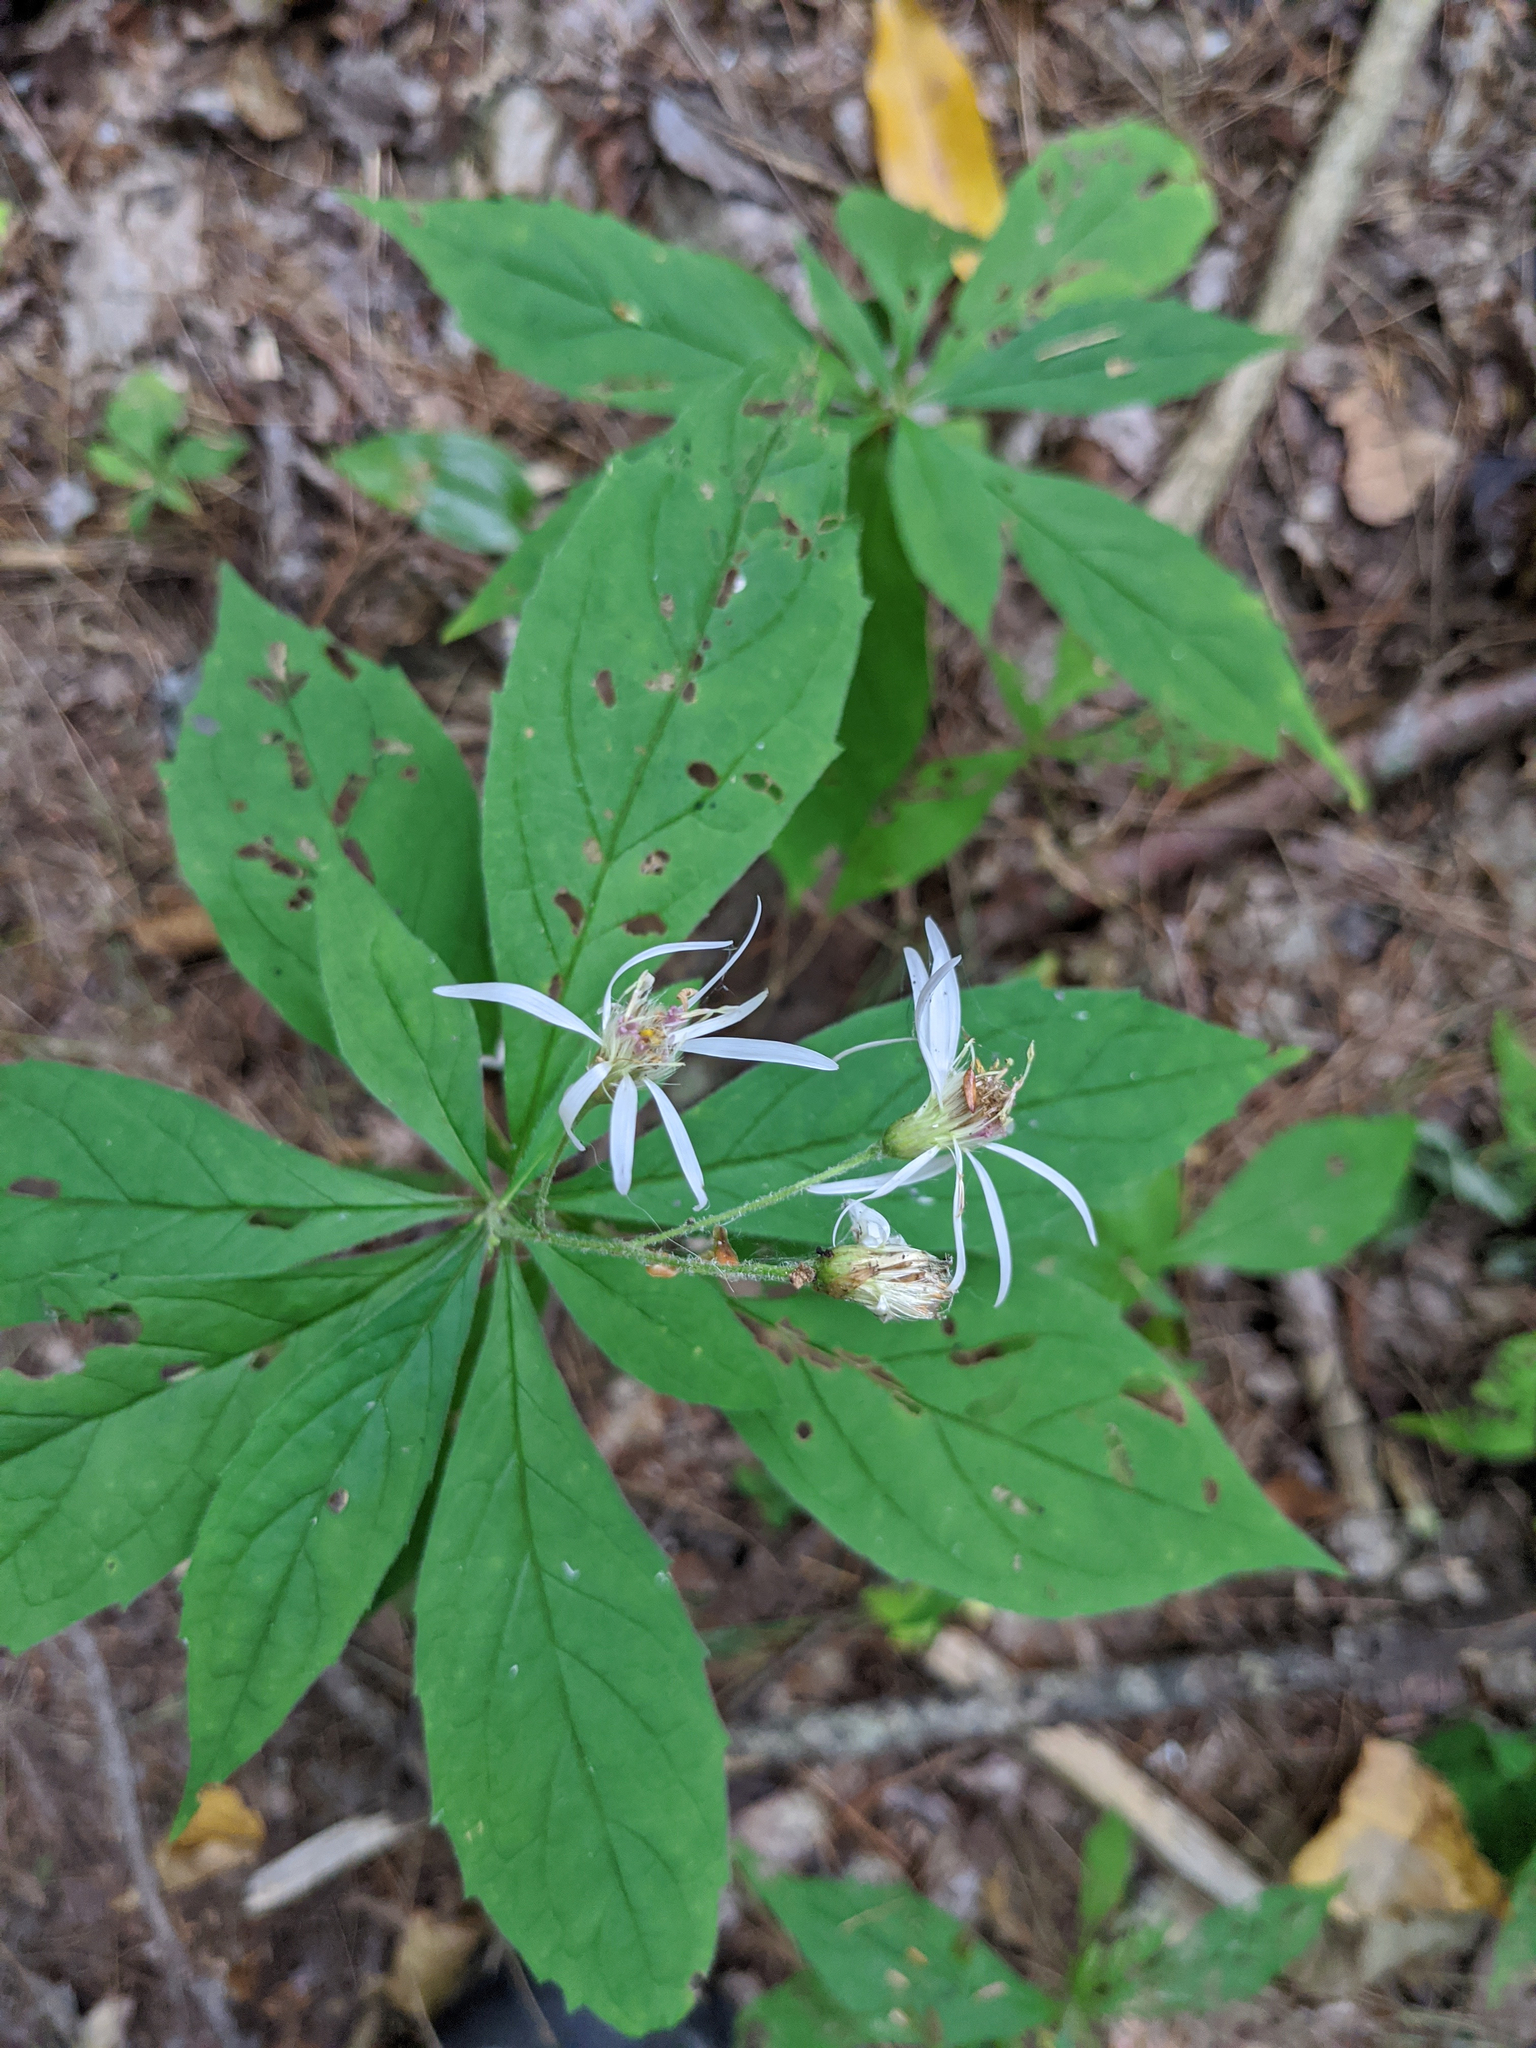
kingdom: Plantae
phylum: Tracheophyta
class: Magnoliopsida
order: Asterales
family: Asteraceae
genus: Oclemena
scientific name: Oclemena acuminata
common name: Mountain aster
